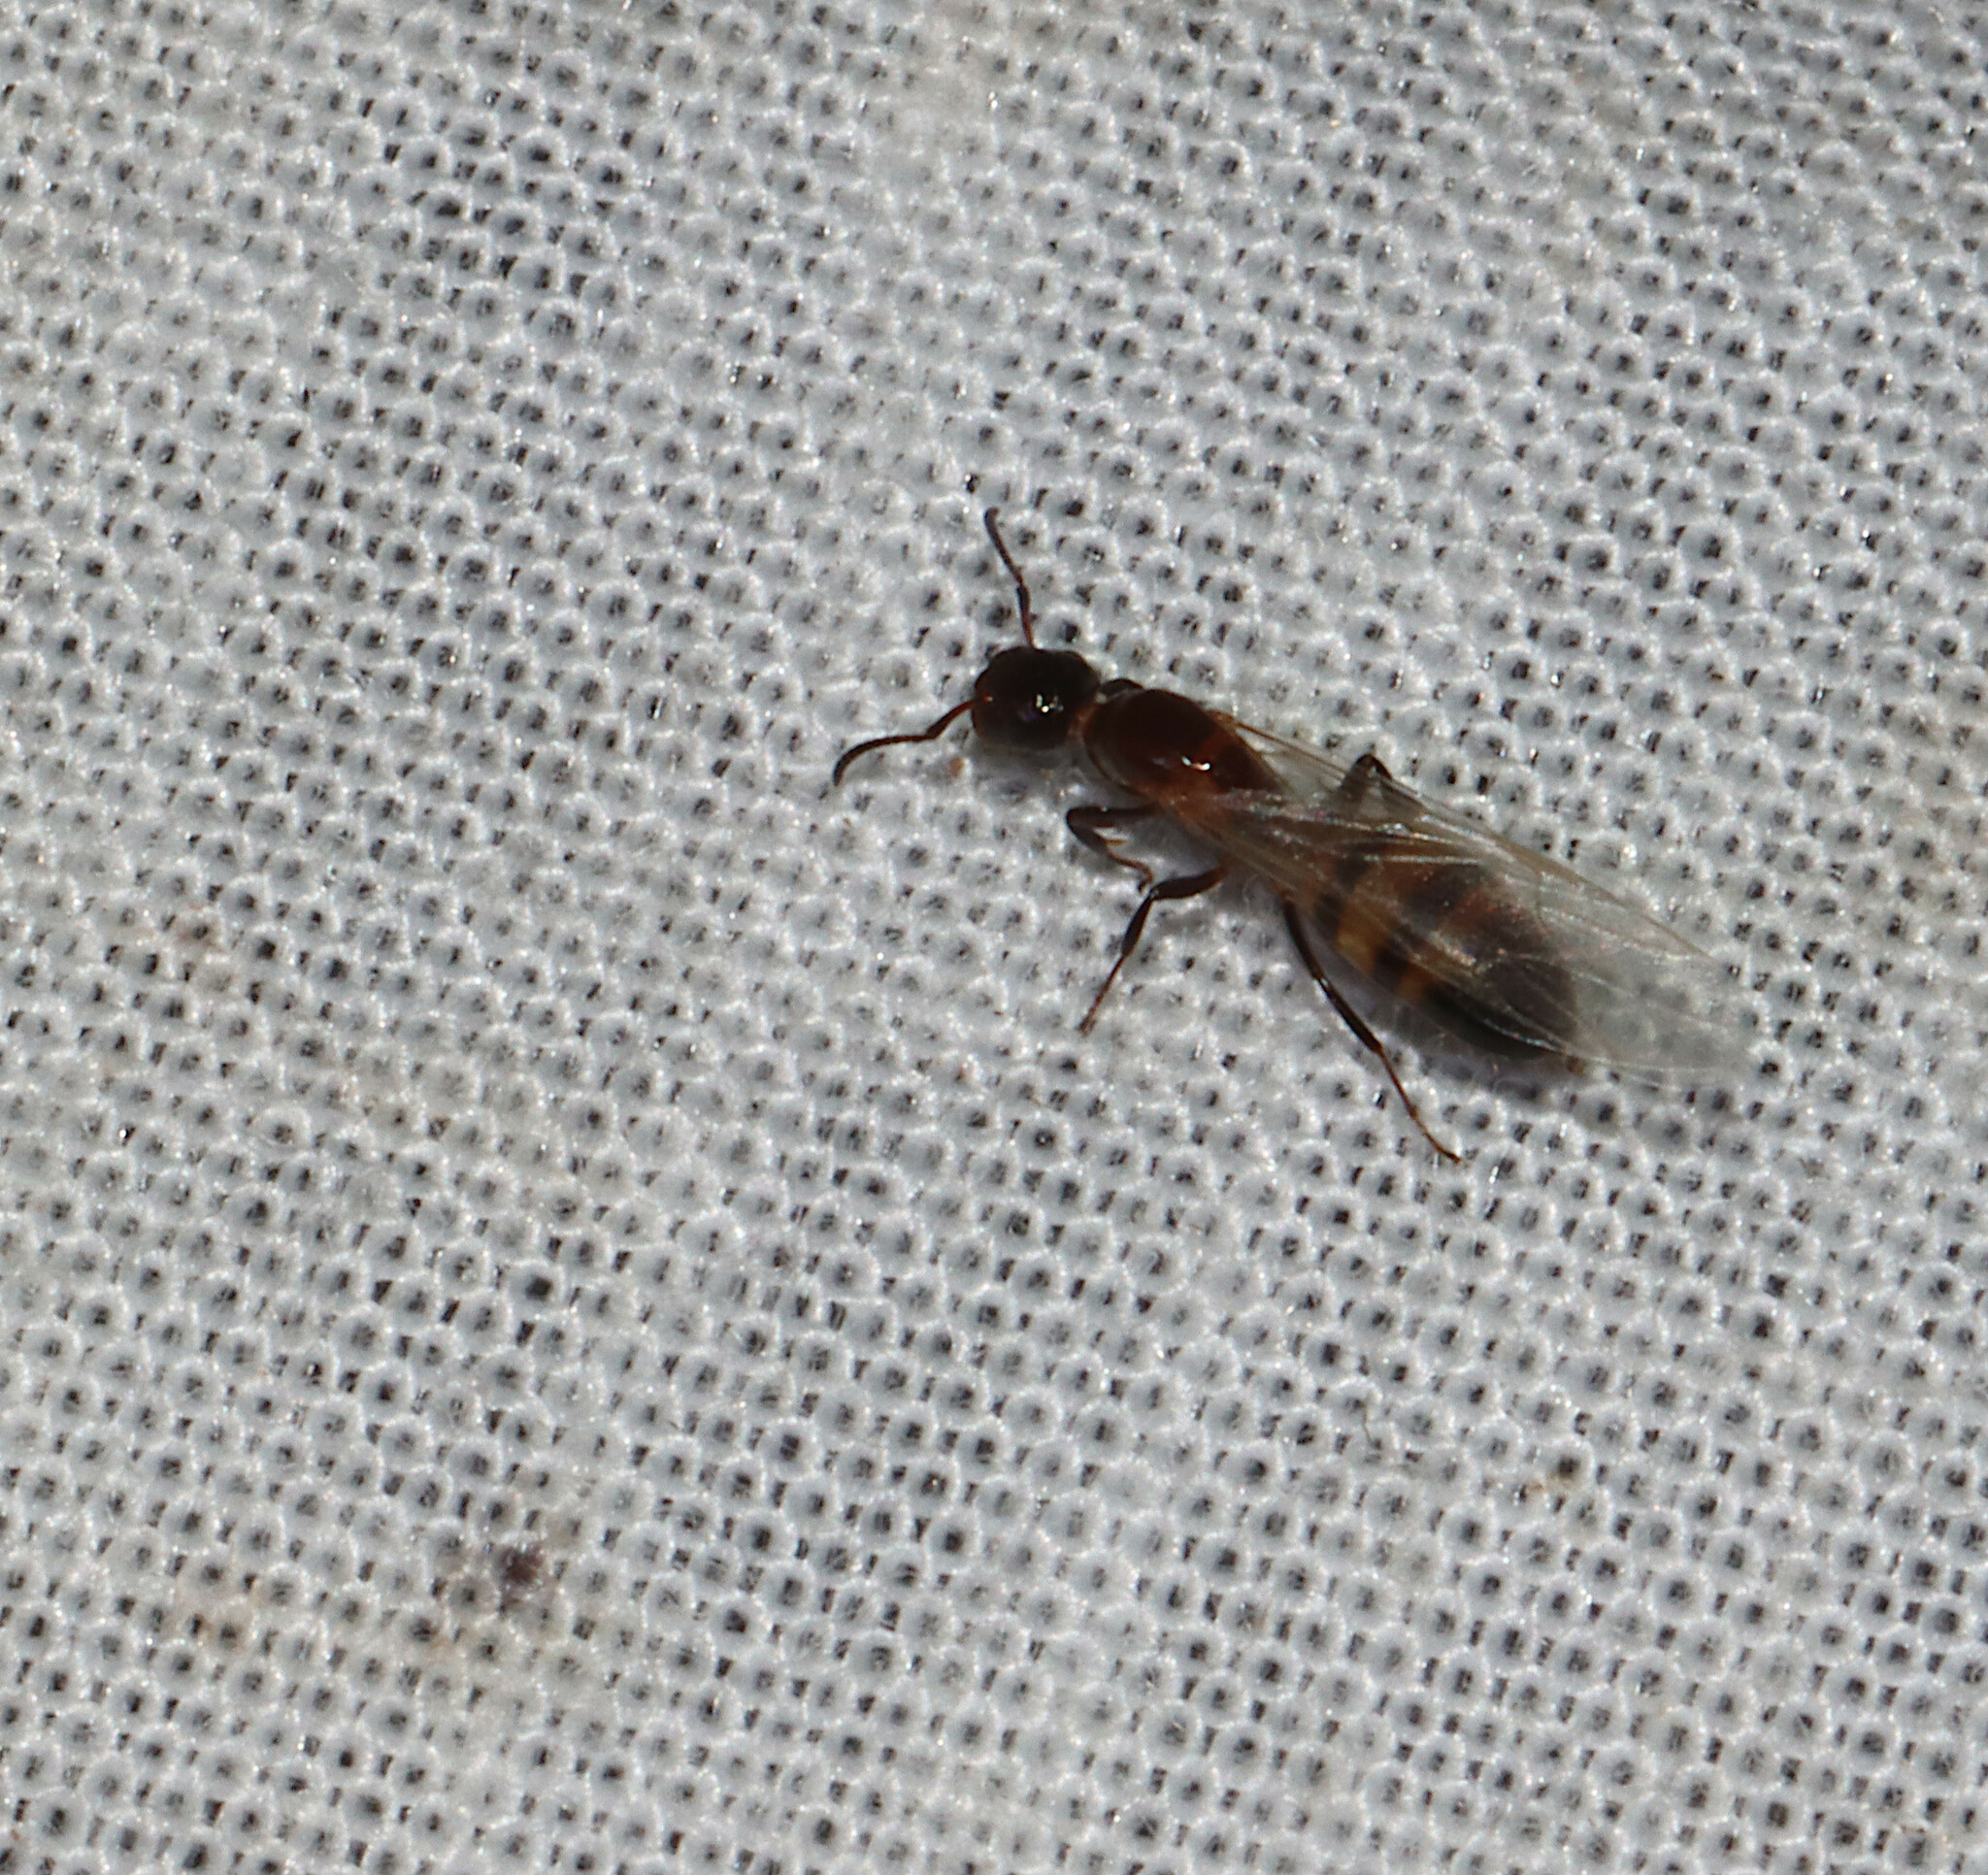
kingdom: Animalia
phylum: Arthropoda
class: Insecta
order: Hymenoptera
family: Formicidae
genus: Colobopsis
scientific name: Colobopsis impressa
